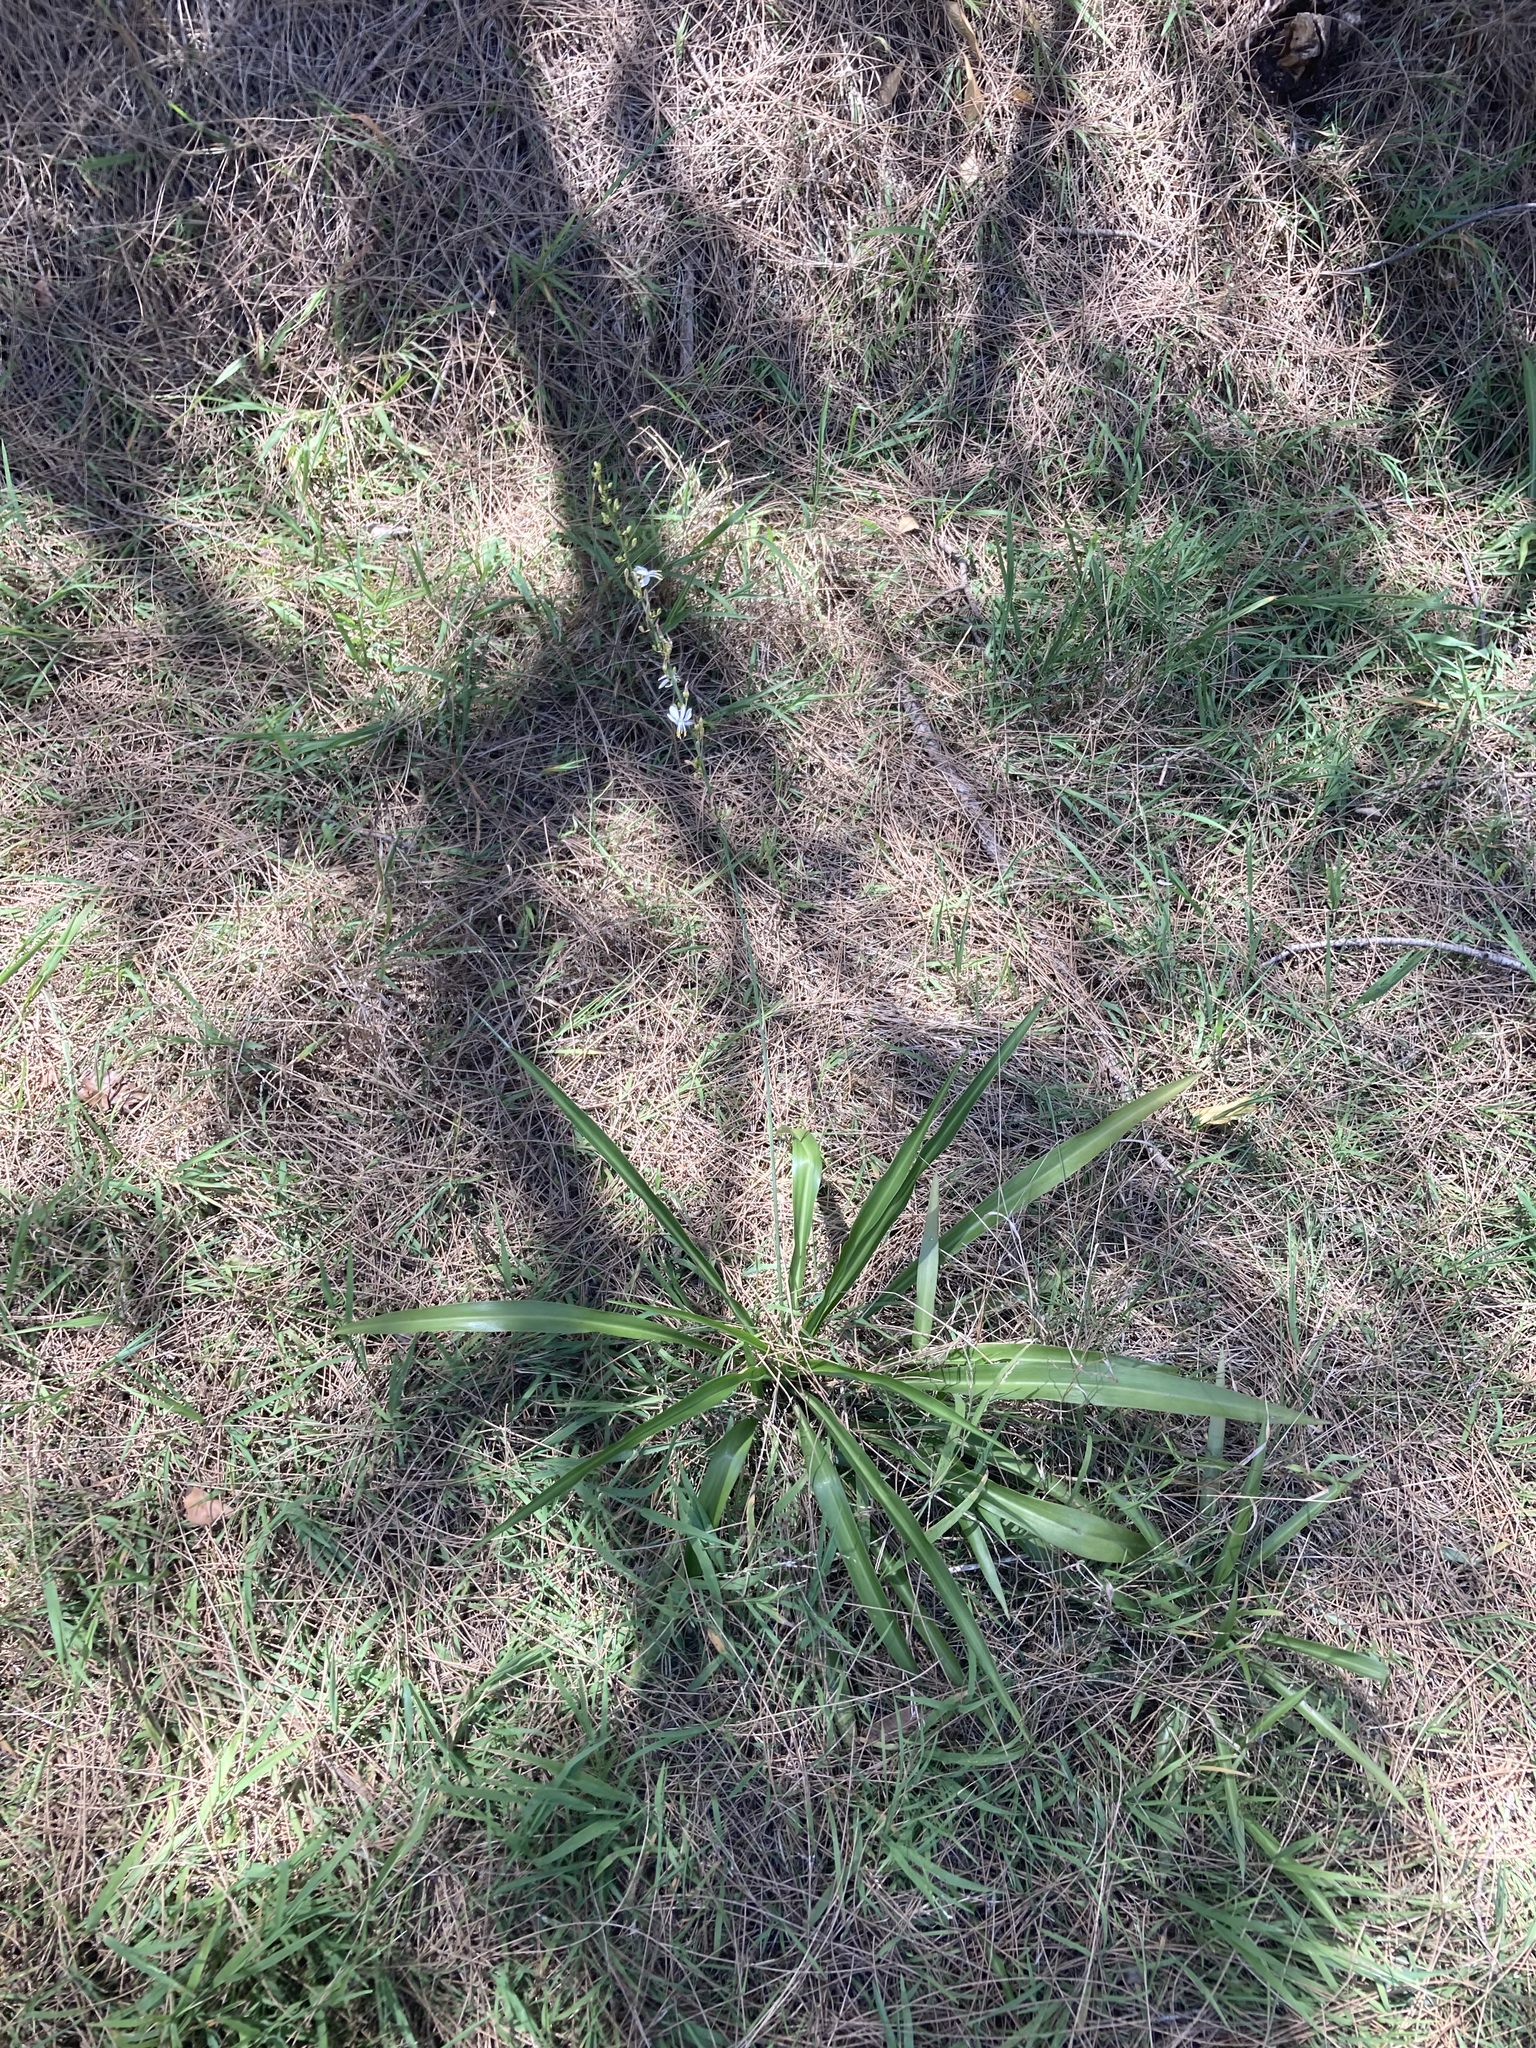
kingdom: Plantae
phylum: Tracheophyta
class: Liliopsida
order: Asparagales
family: Asparagaceae
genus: Chlorophytum
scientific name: Chlorophytum comosum
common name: Spider plant
